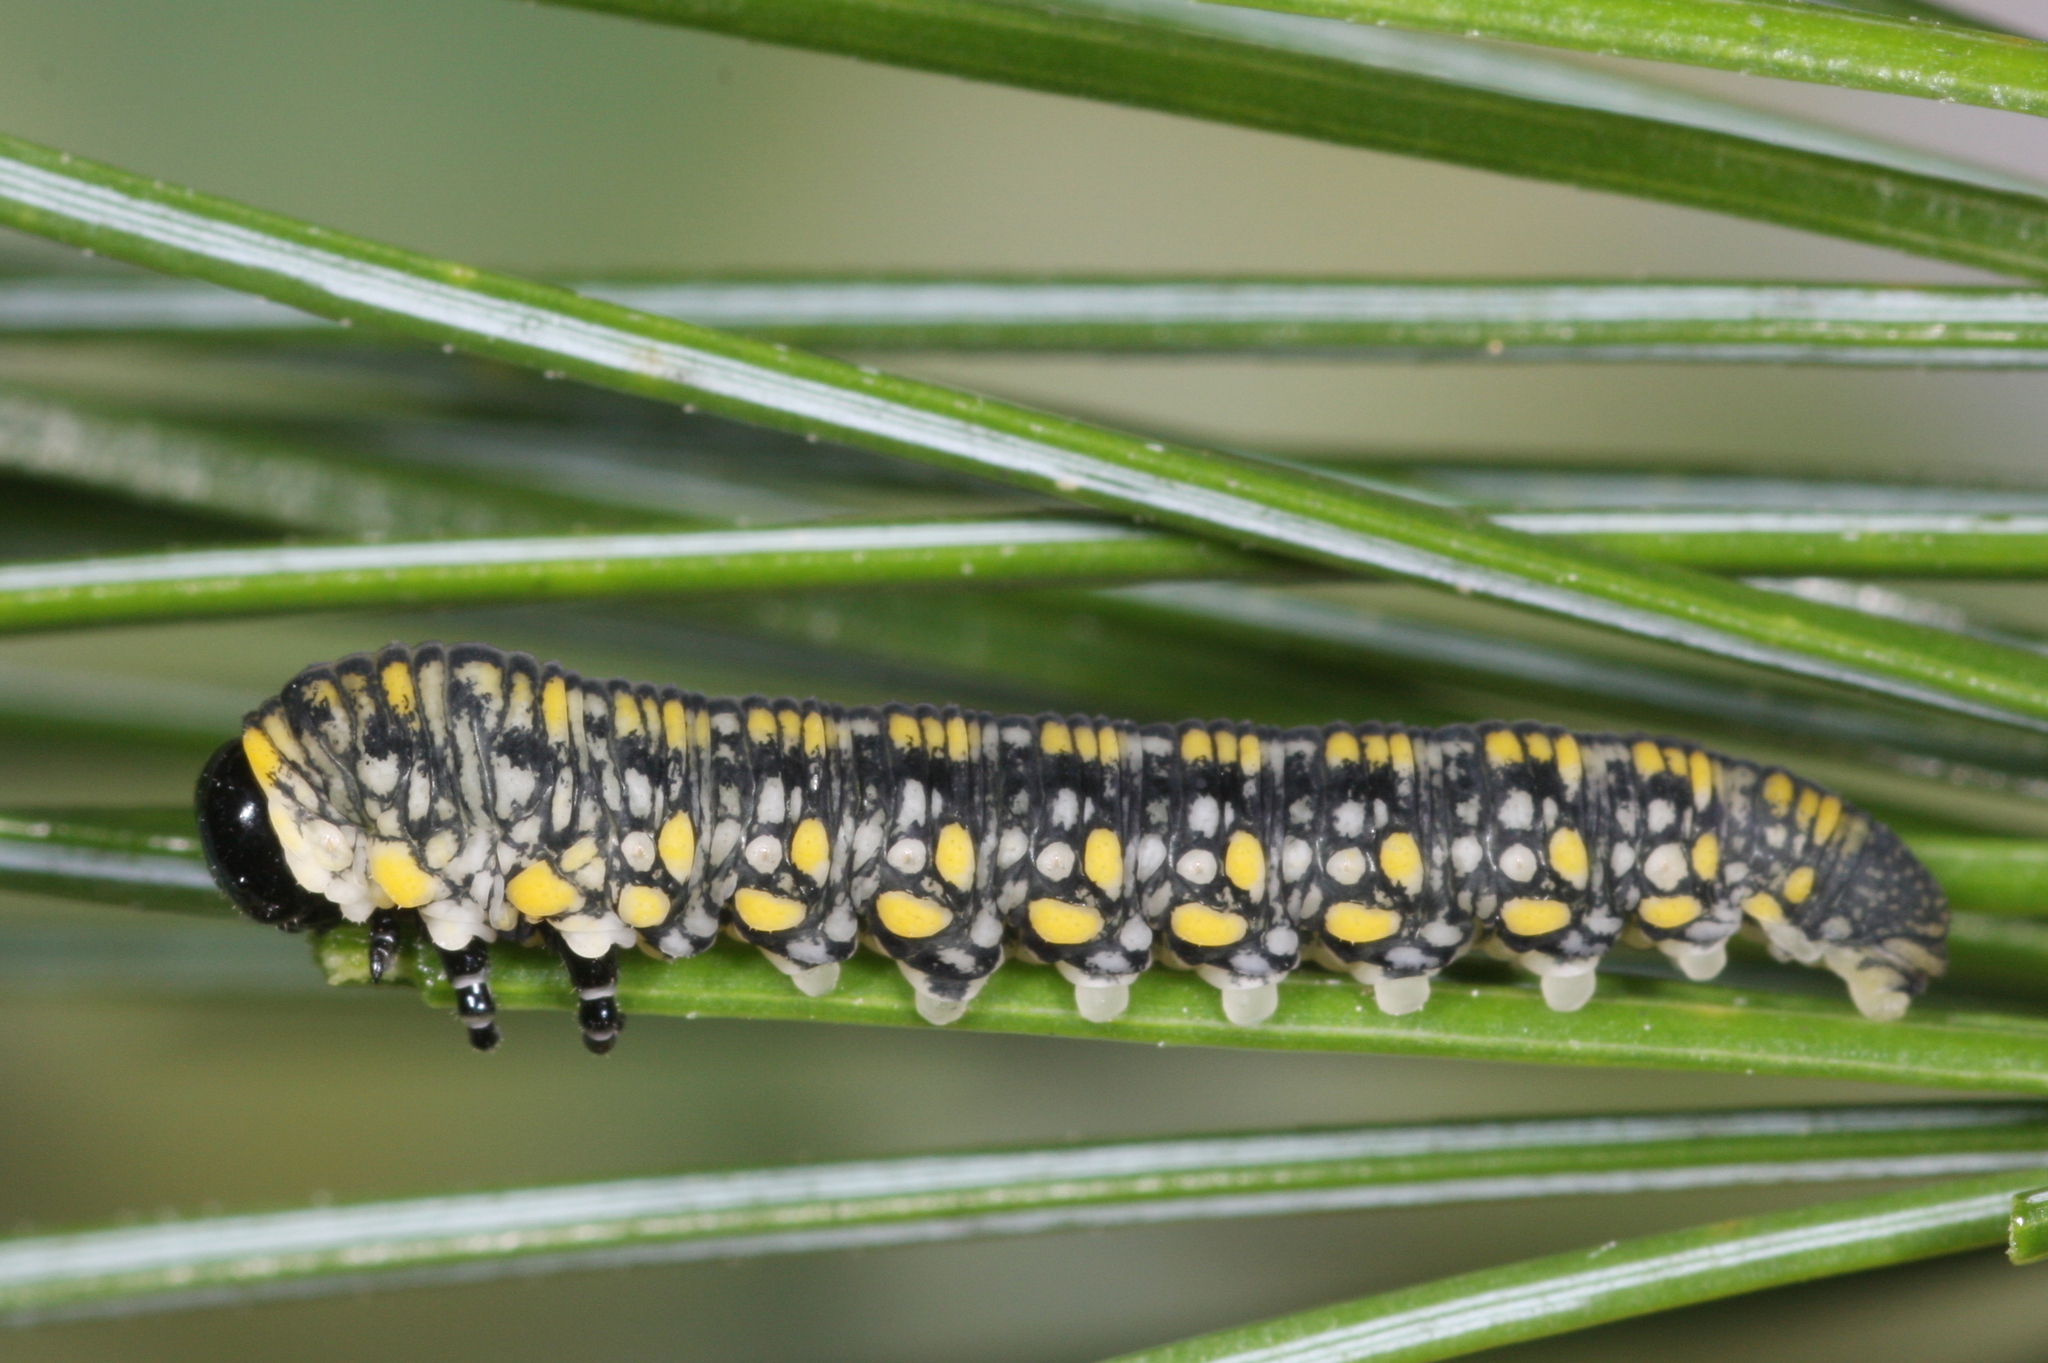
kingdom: Animalia
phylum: Arthropoda
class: Insecta
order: Hymenoptera
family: Diprionidae
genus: Diprion
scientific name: Diprion similis
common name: Pine sawfly
